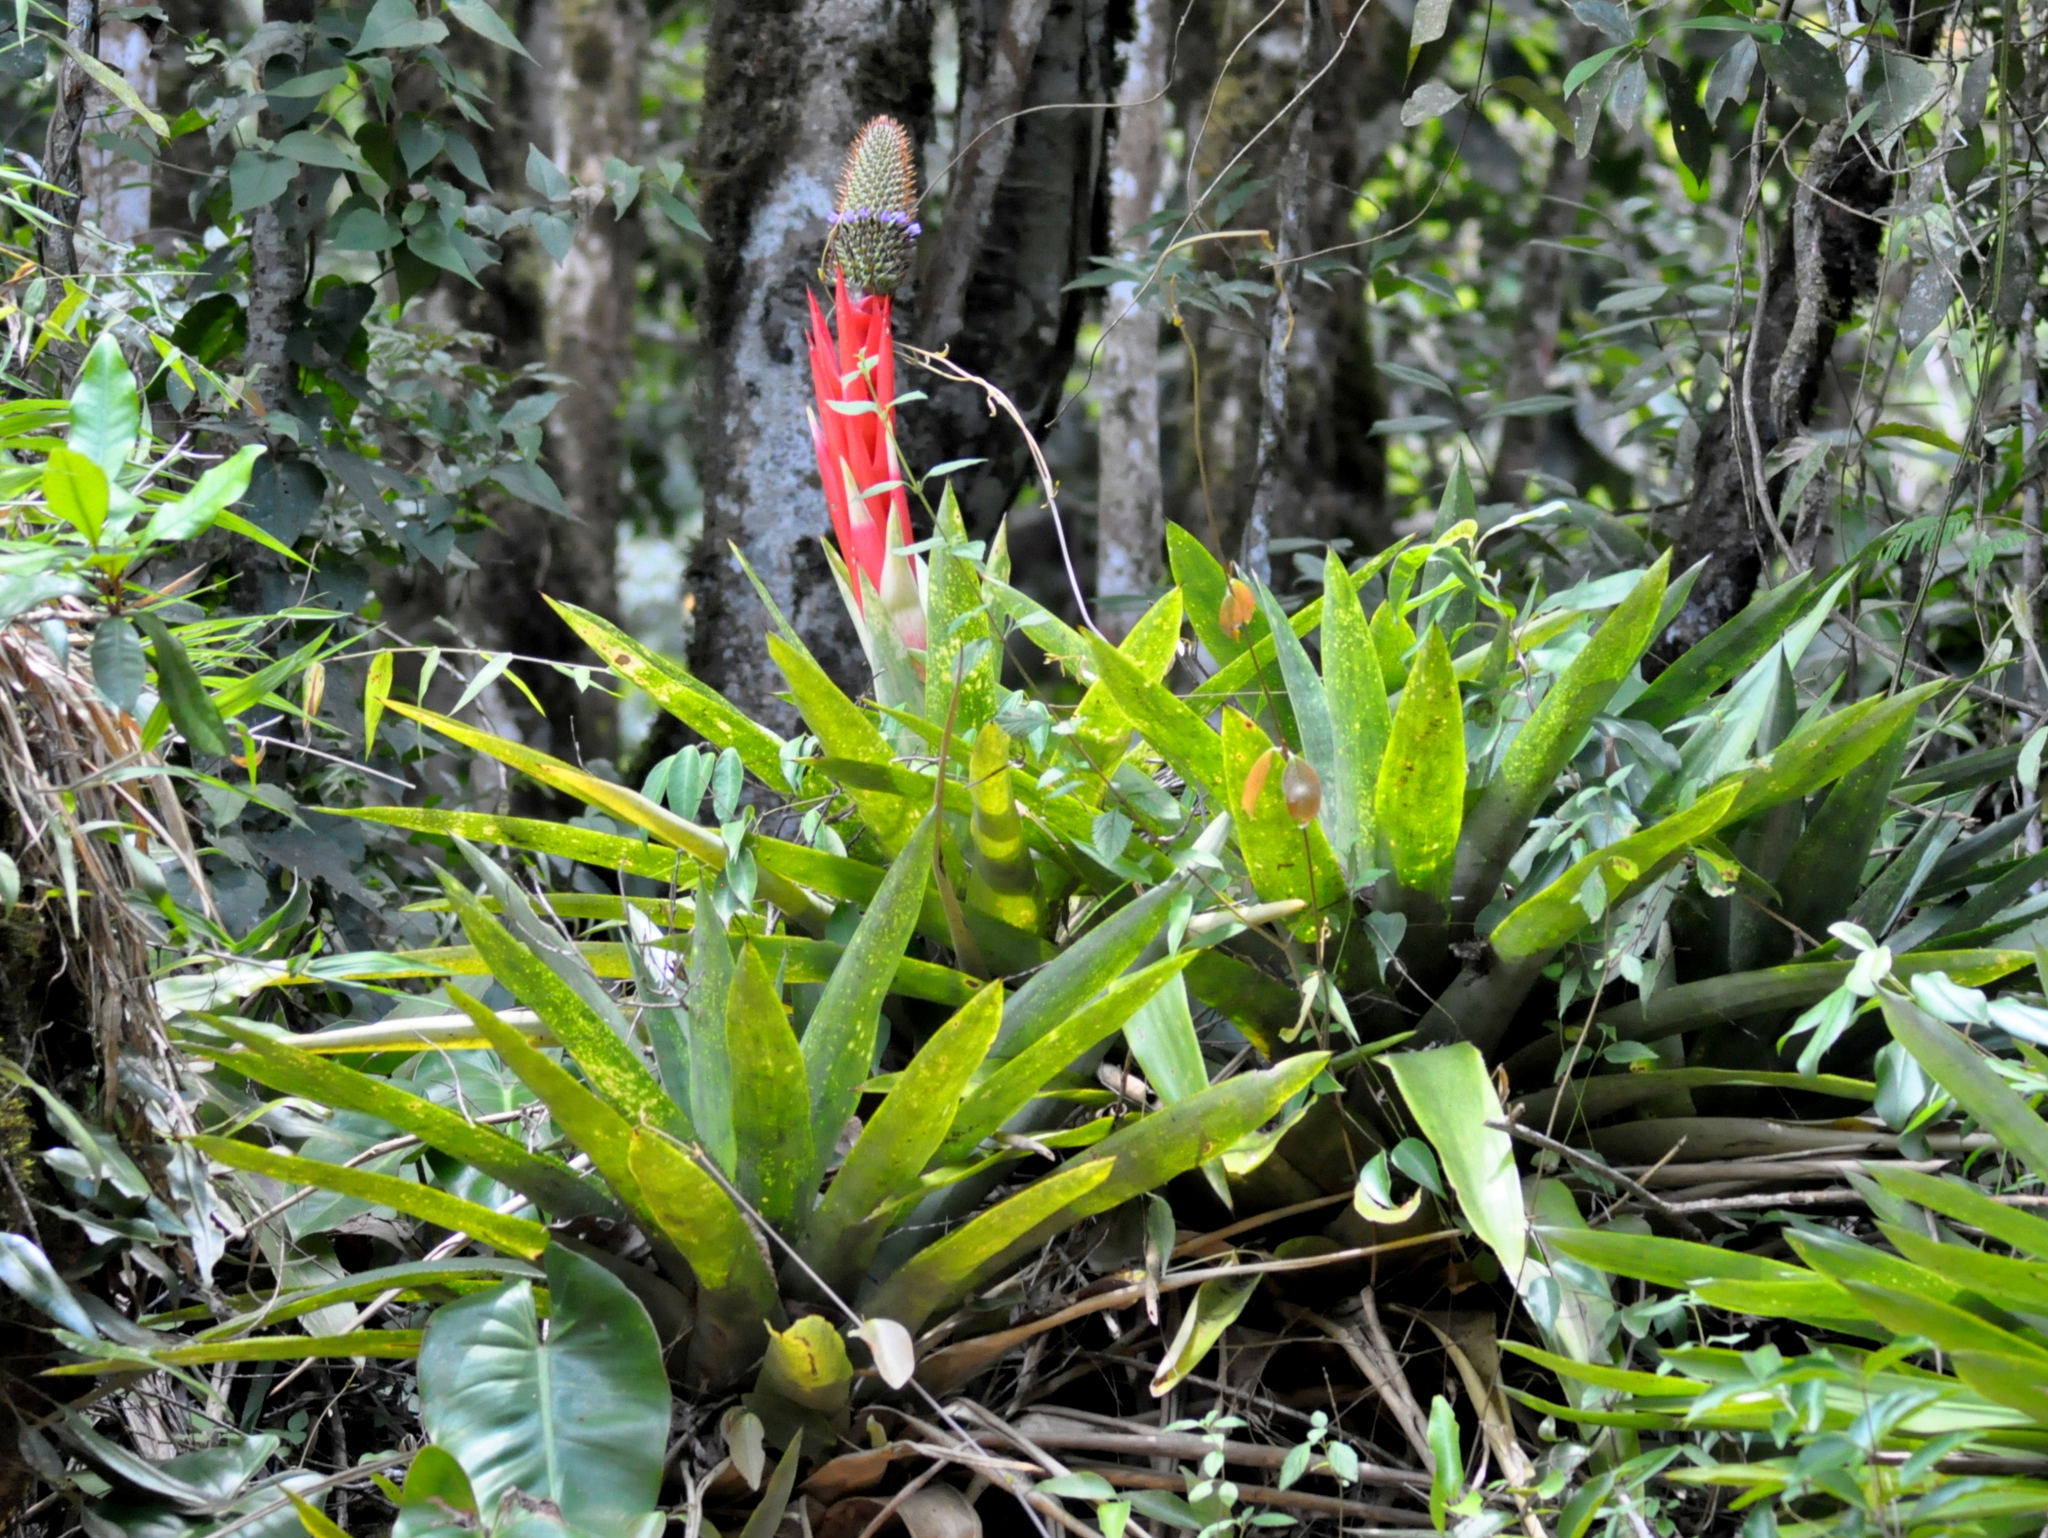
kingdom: Plantae
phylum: Tracheophyta
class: Liliopsida
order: Poales
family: Bromeliaceae
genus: Aechmea
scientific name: Aechmea ornata
